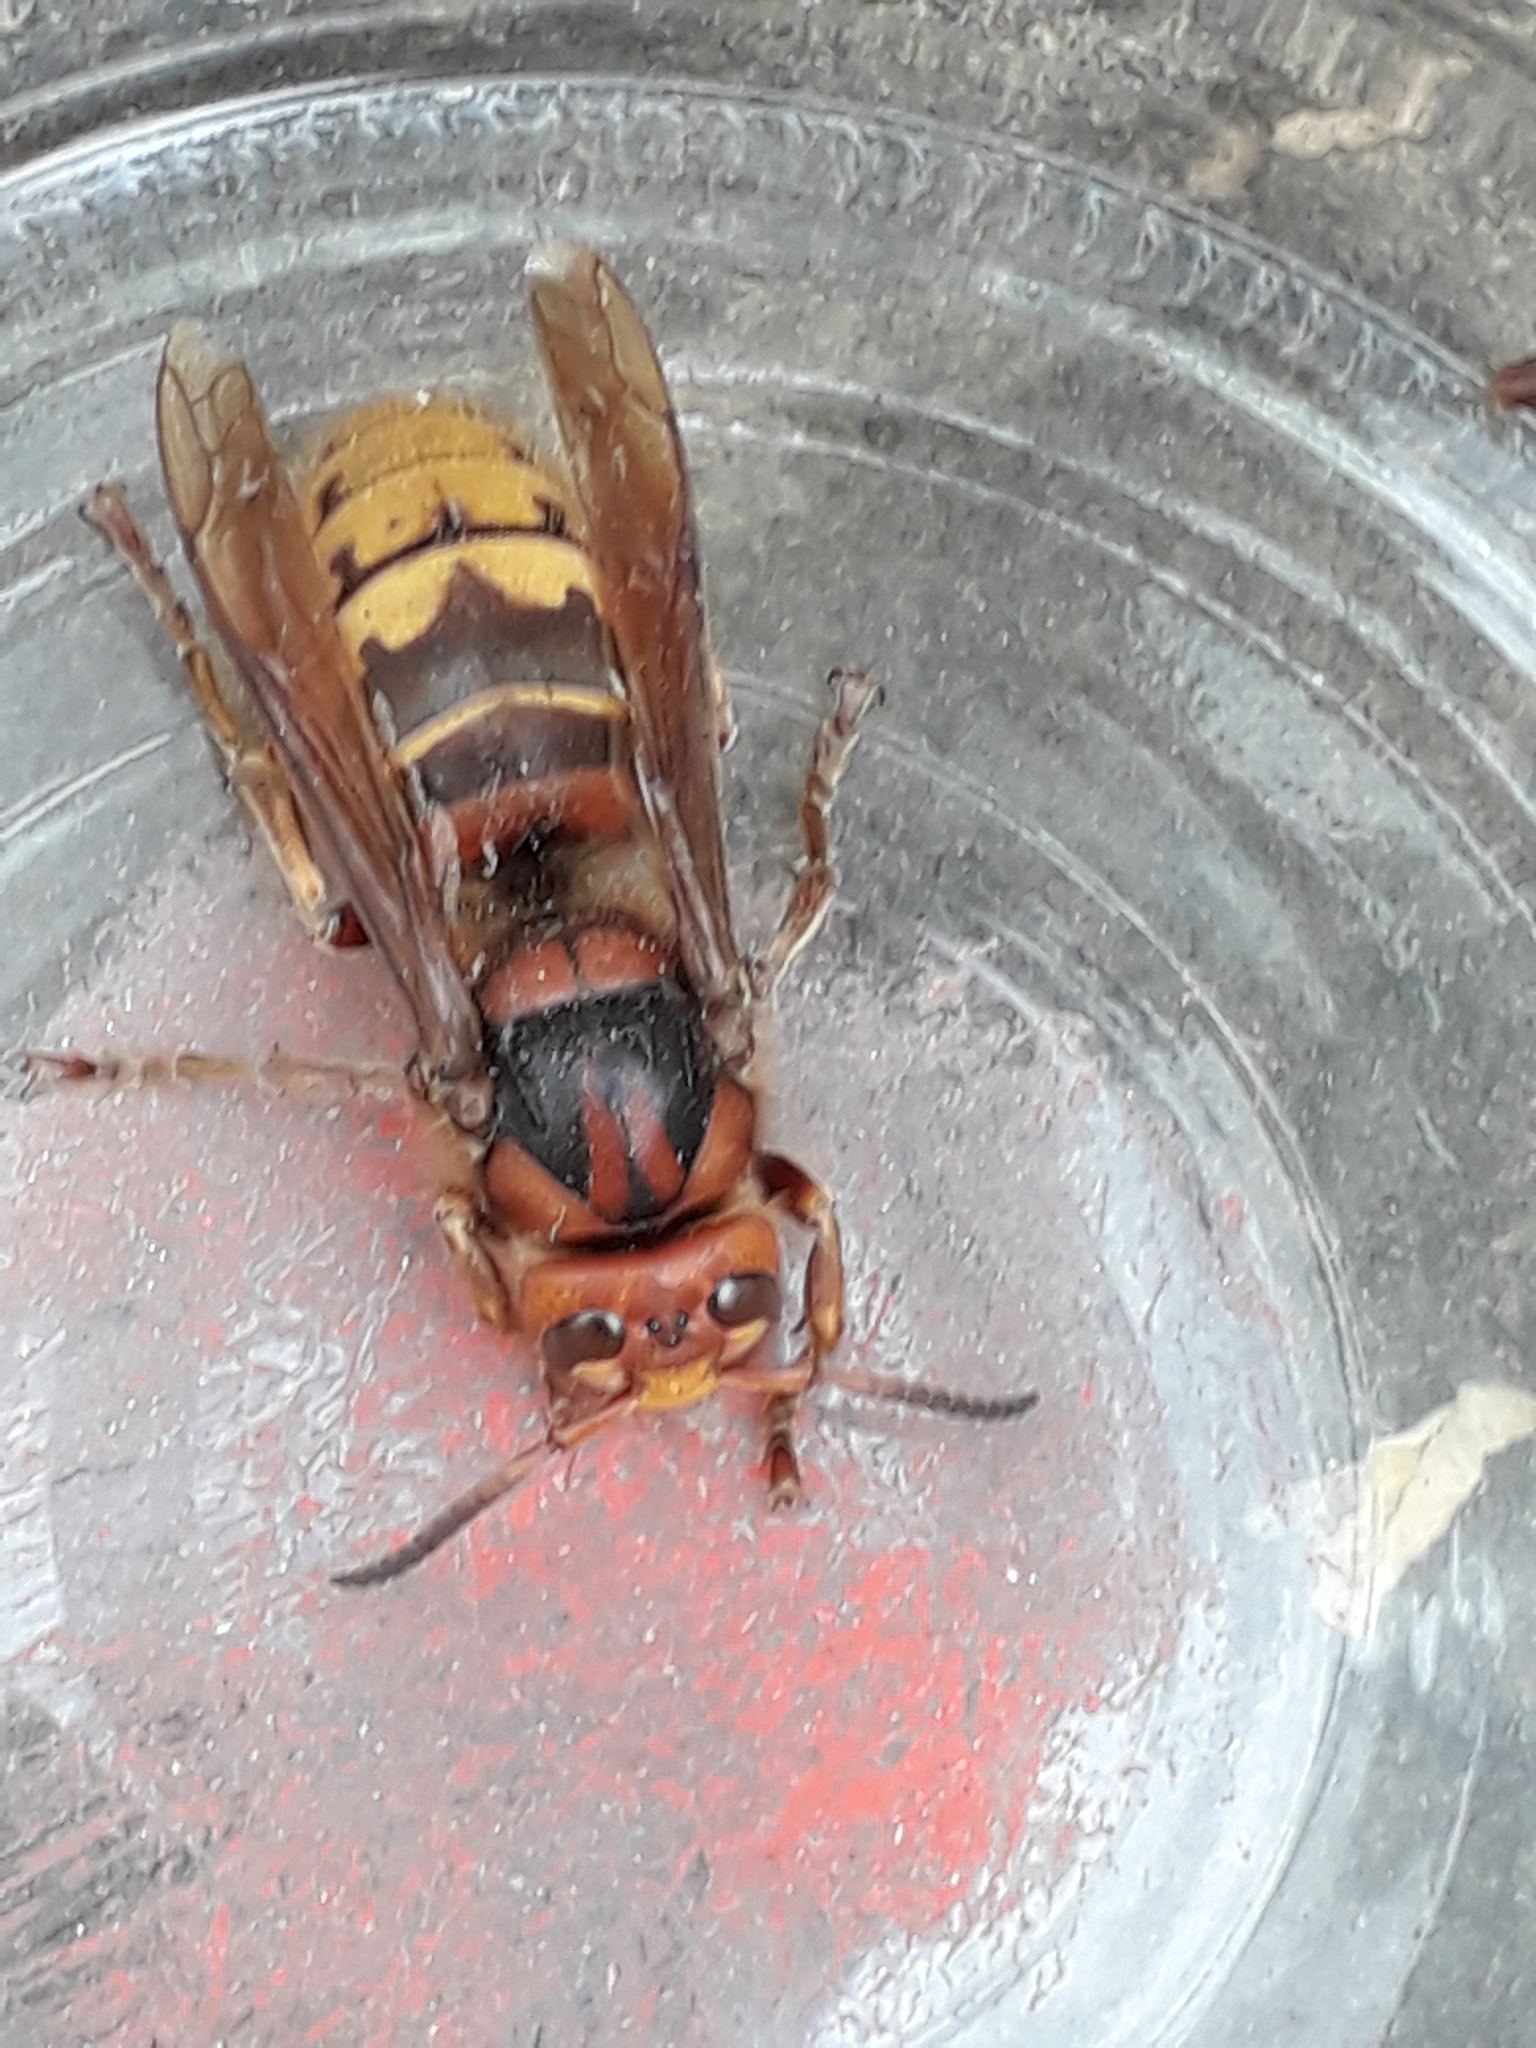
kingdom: Animalia
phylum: Arthropoda
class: Insecta
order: Hymenoptera
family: Vespidae
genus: Vespa
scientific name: Vespa crabro
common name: Hornet
